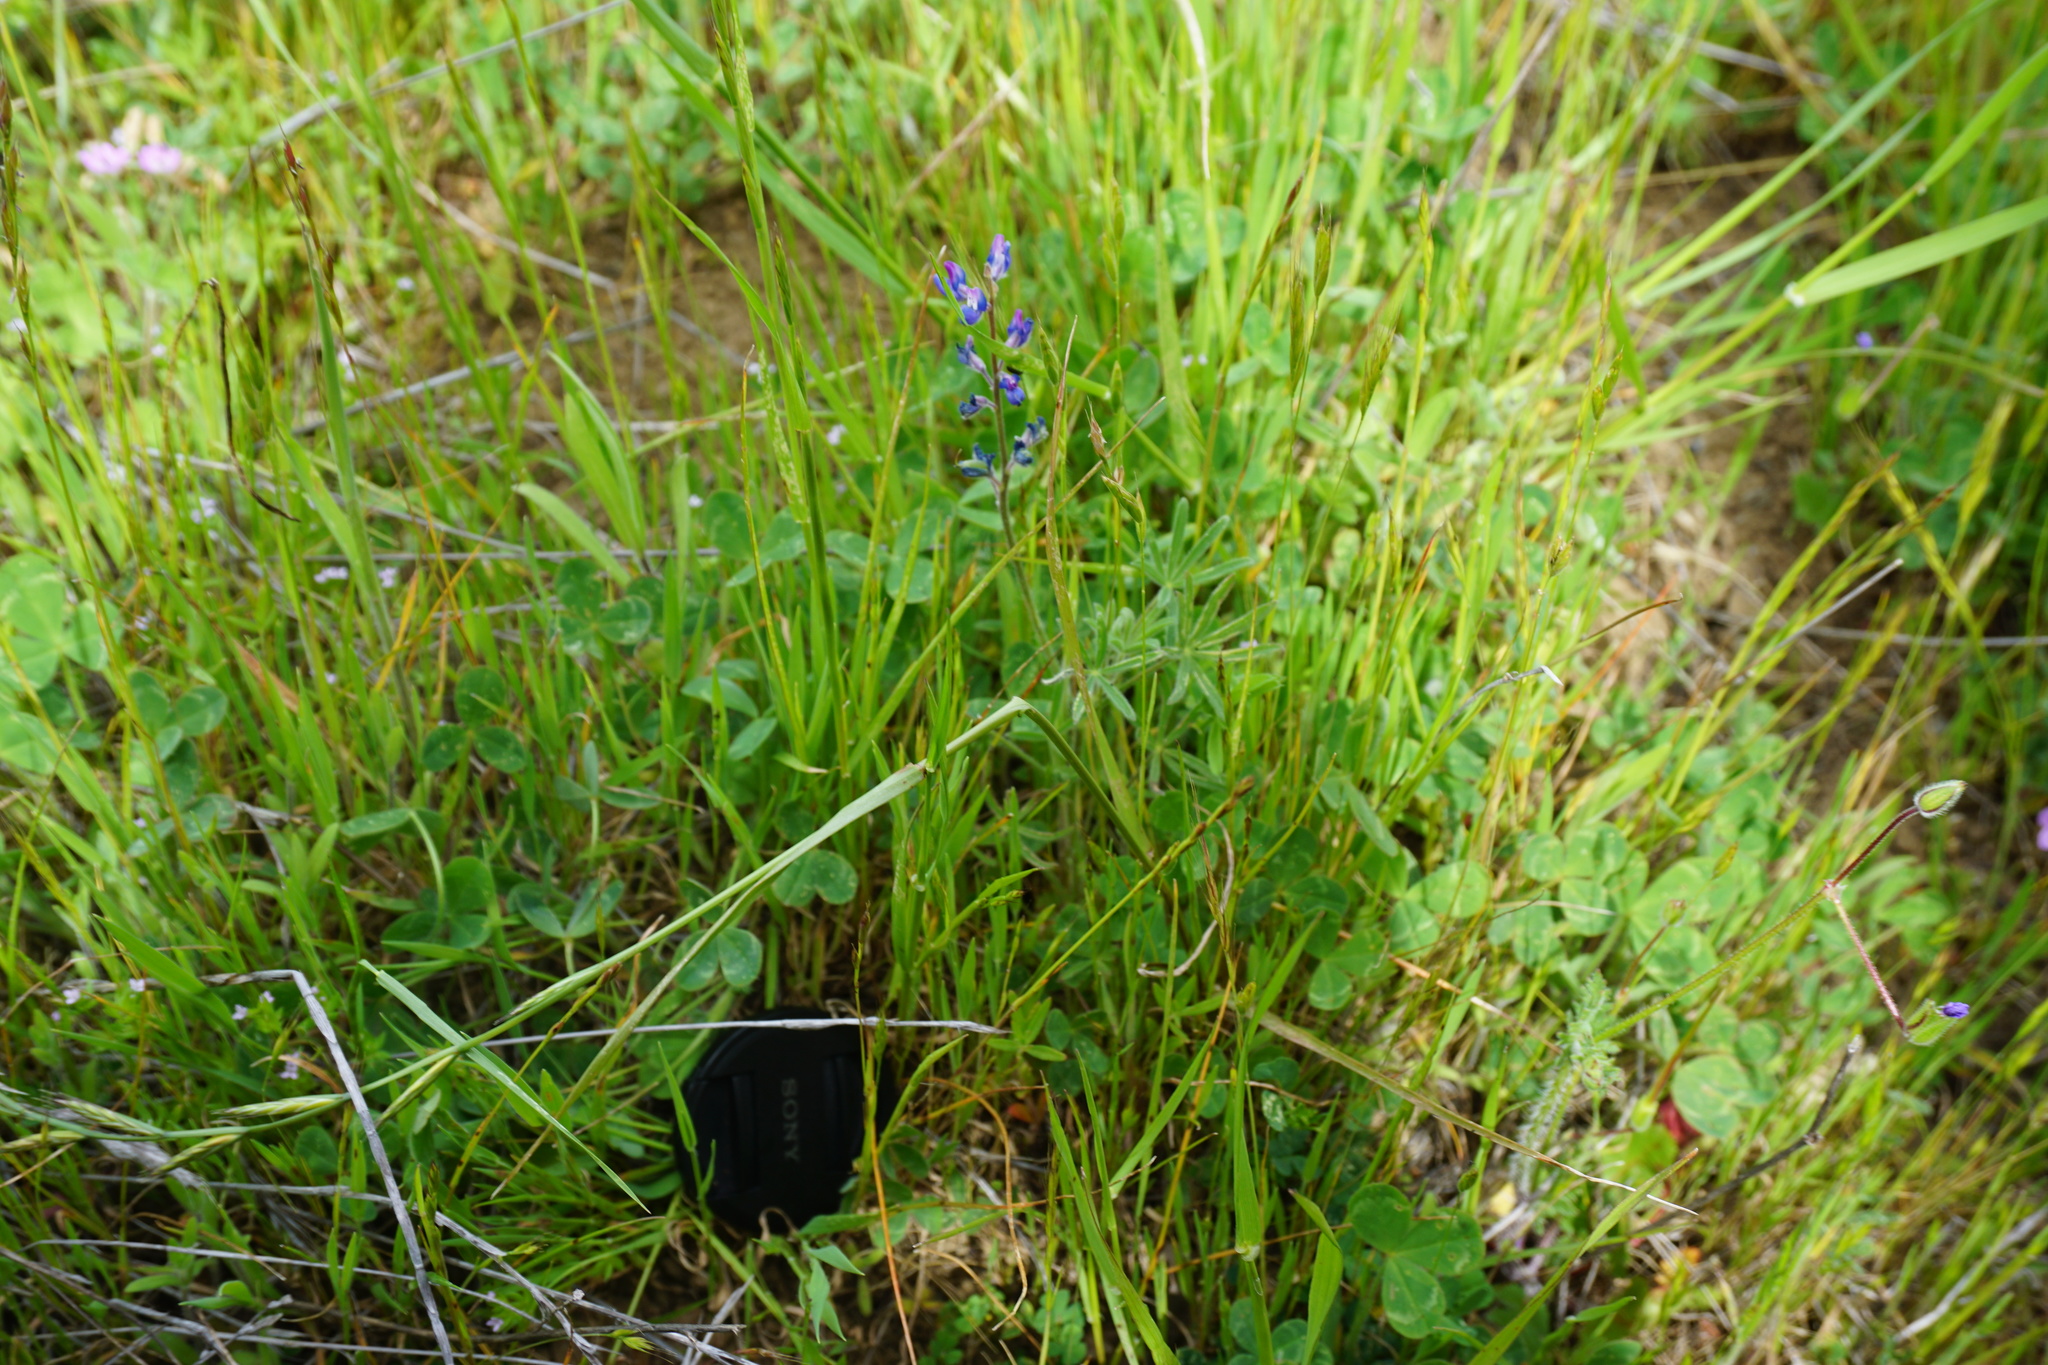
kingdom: Plantae
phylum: Tracheophyta
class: Magnoliopsida
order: Fabales
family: Fabaceae
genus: Lupinus
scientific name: Lupinus bicolor
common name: Miniature lupine
